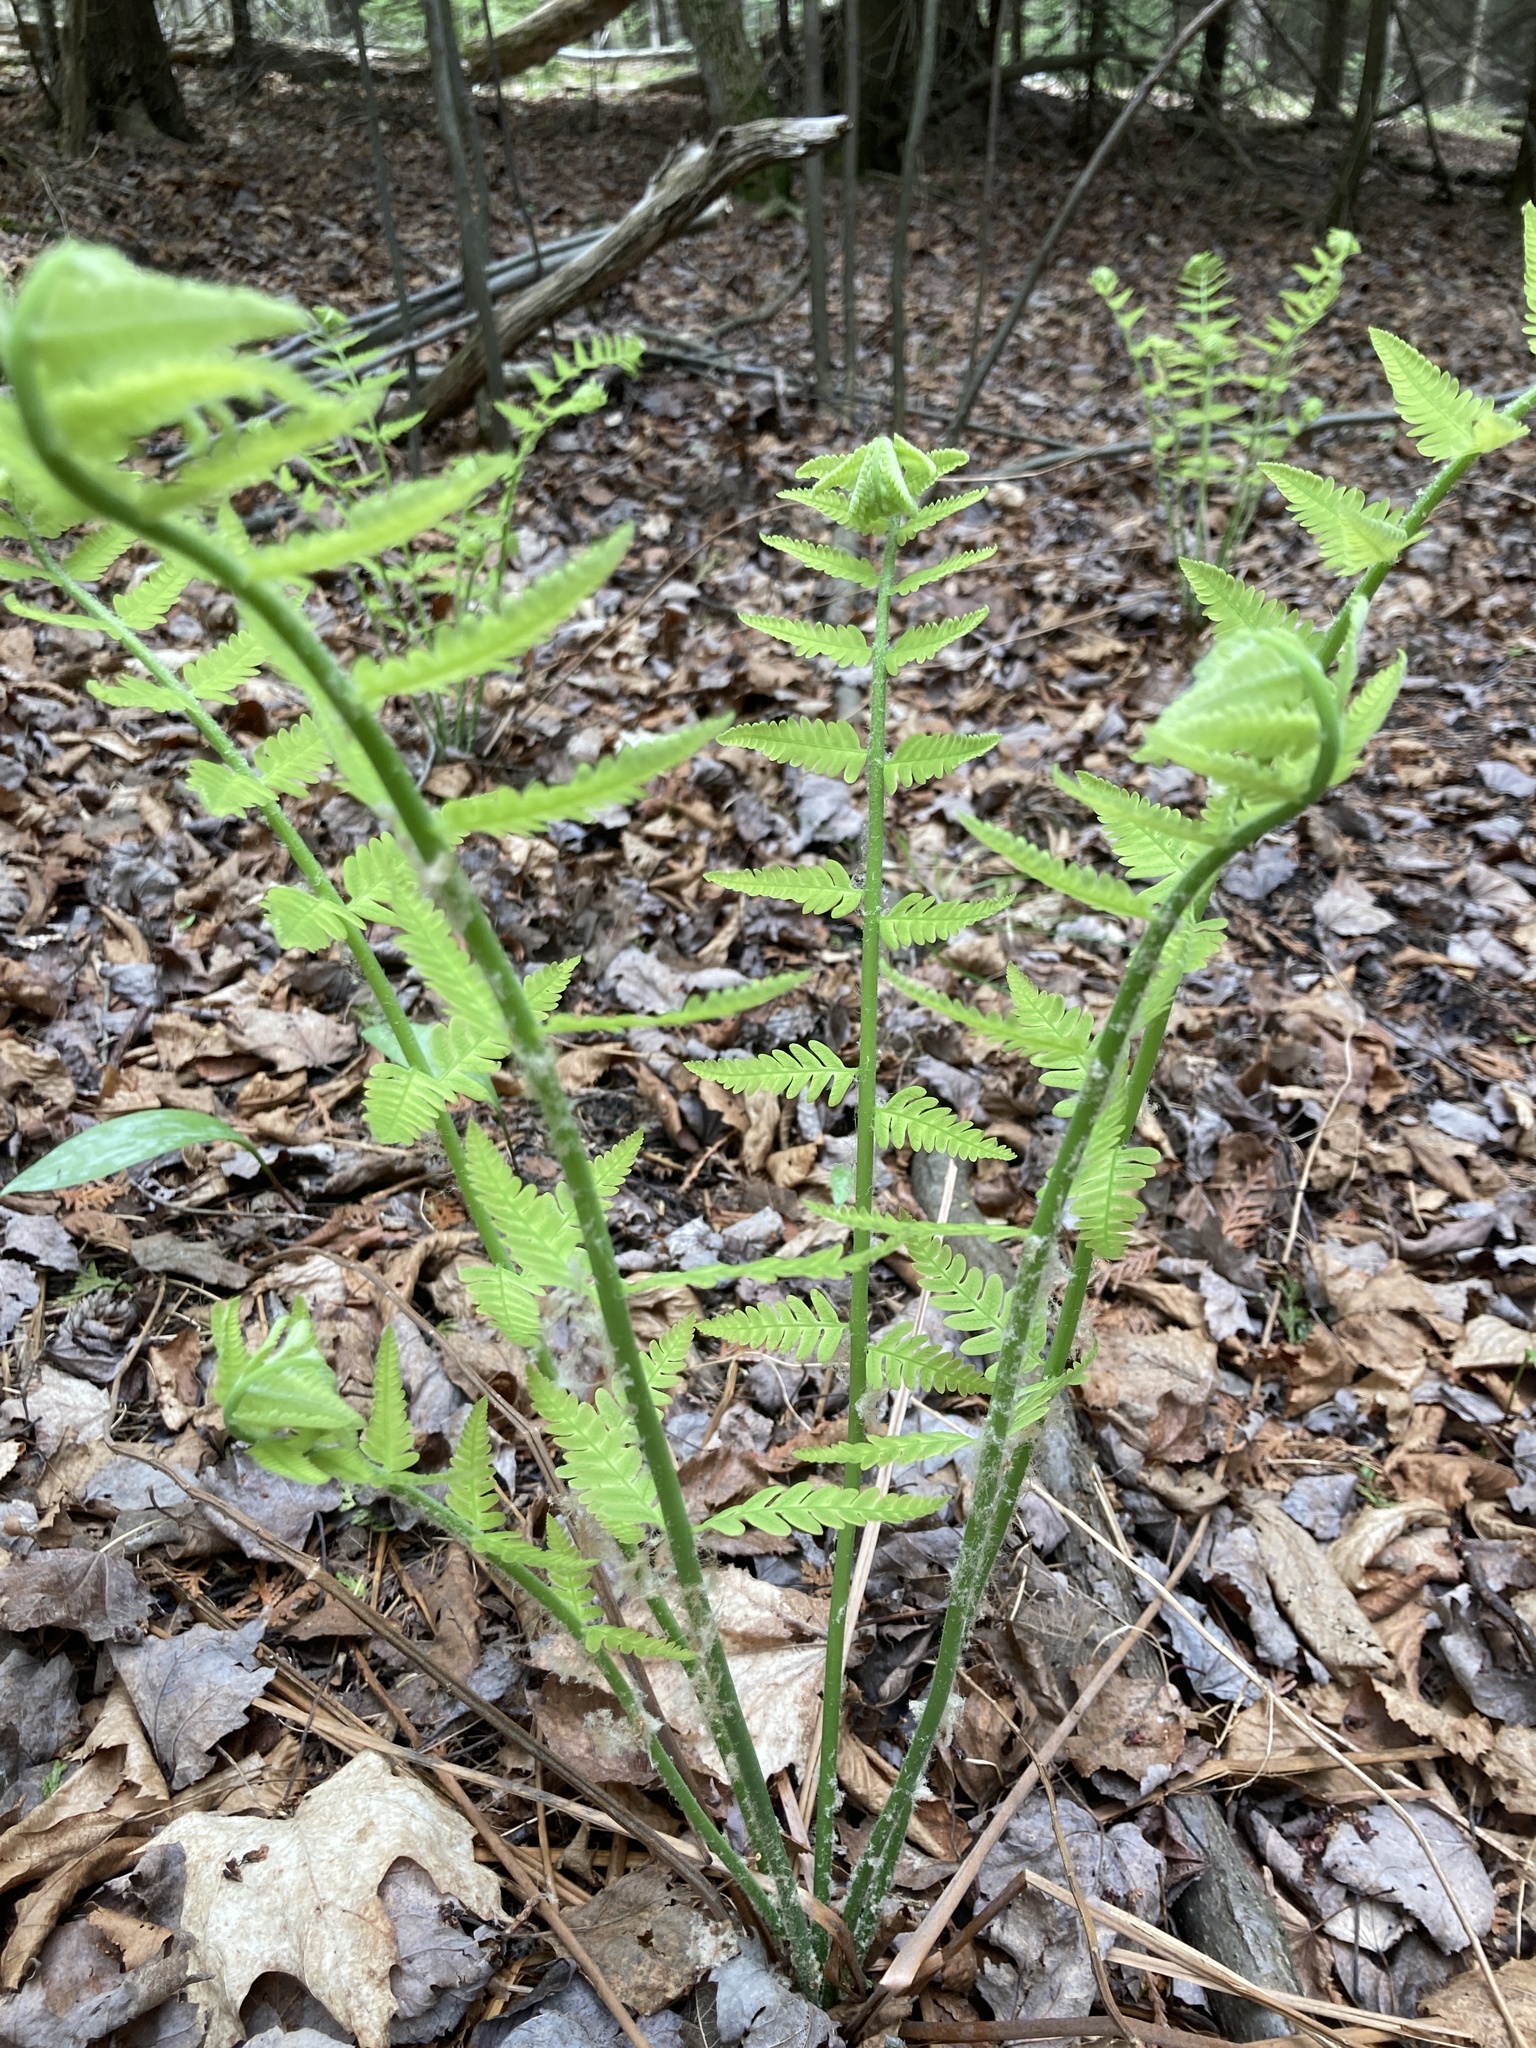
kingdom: Plantae
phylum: Tracheophyta
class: Polypodiopsida
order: Osmundales
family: Osmundaceae
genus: Claytosmunda
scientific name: Claytosmunda claytoniana
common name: Clayton's fern
